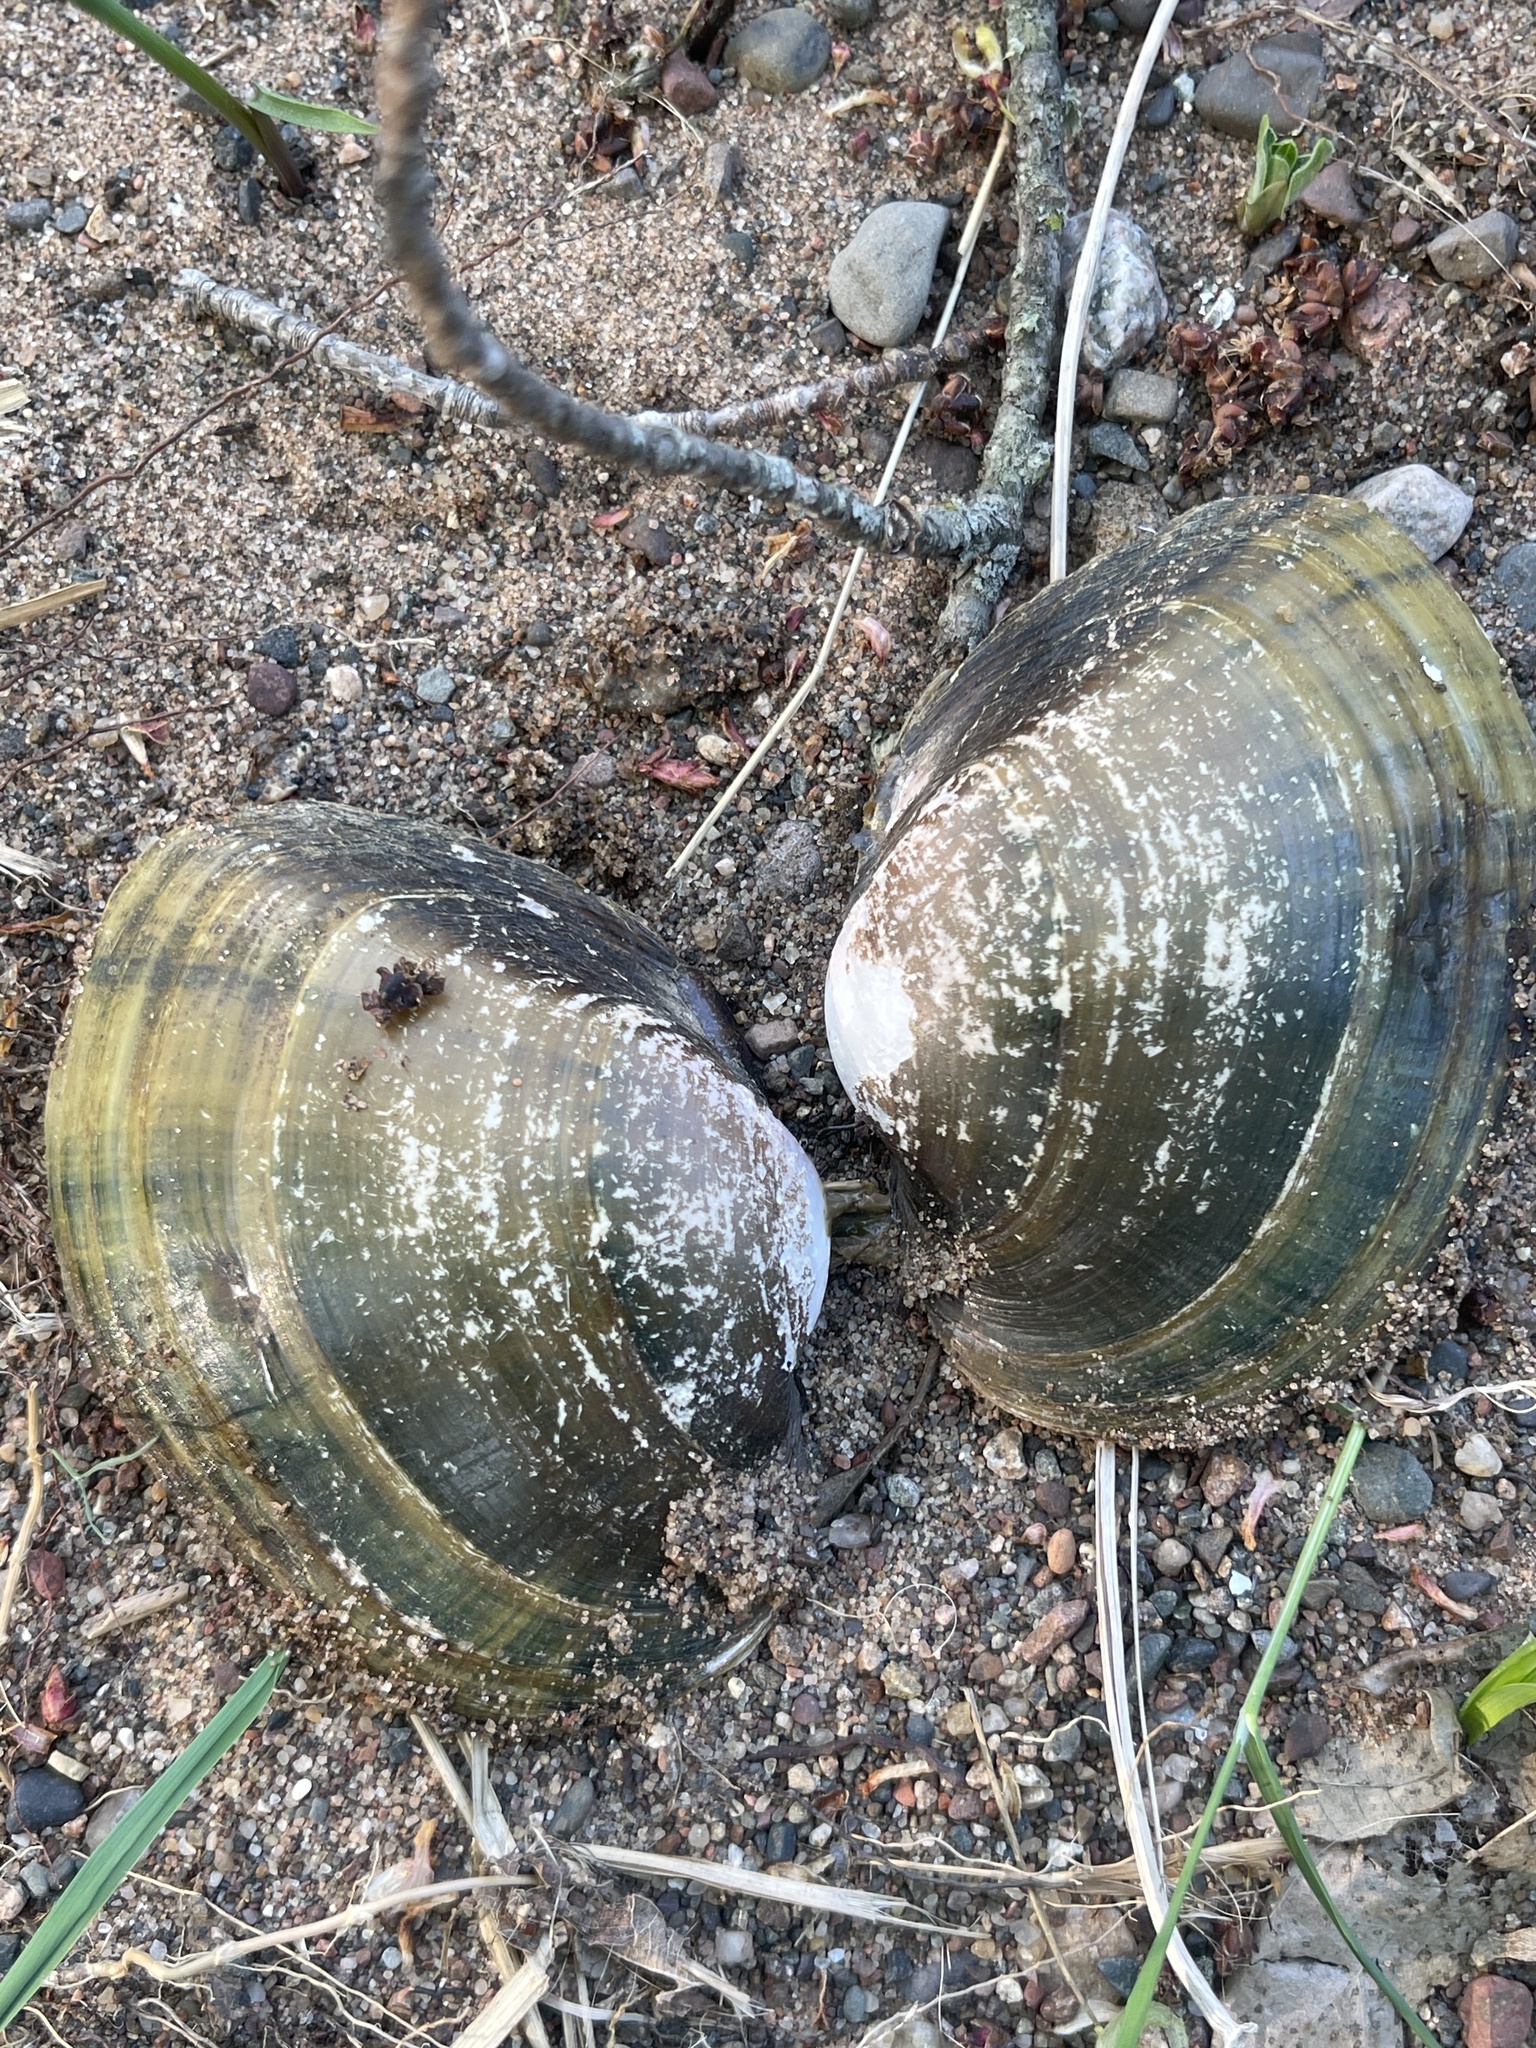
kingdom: Animalia
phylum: Mollusca
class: Bivalvia
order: Unionida
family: Unionidae
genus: Lampsilis
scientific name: Lampsilis cardium
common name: Plain pocketbook
